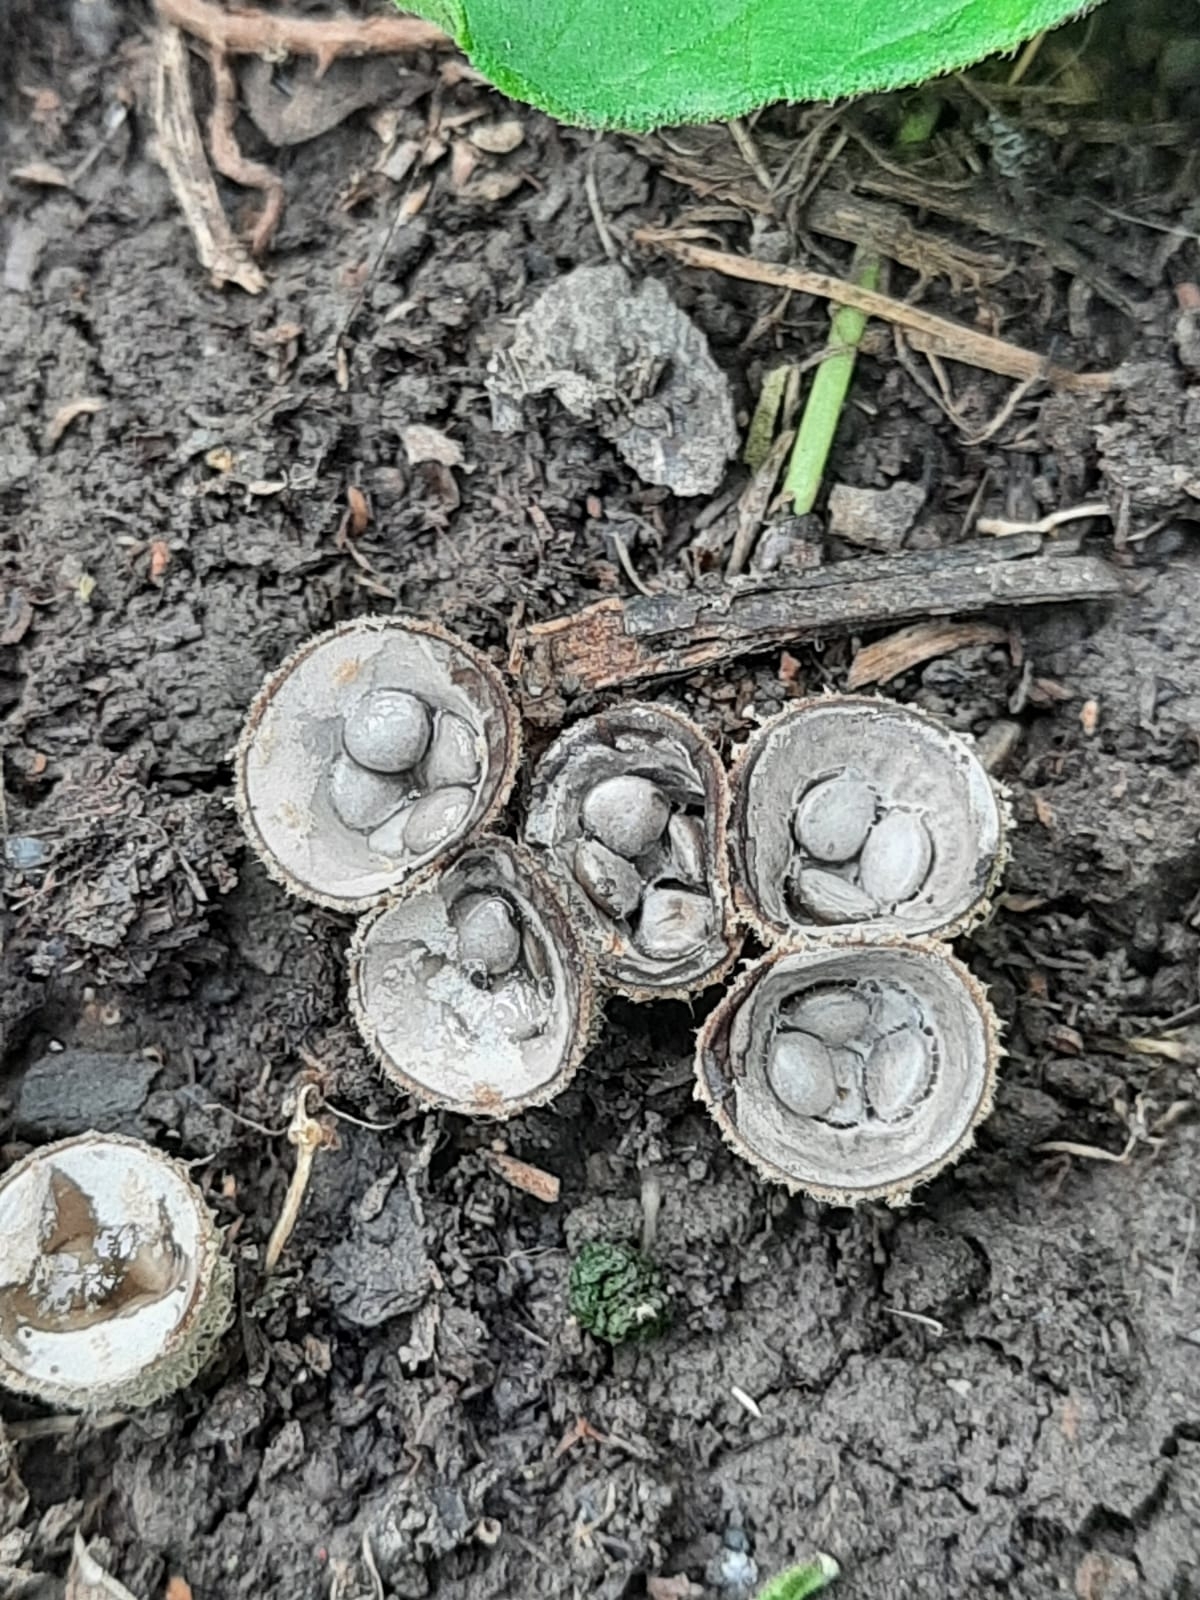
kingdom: Fungi
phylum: Basidiomycota
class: Agaricomycetes
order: Agaricales
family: Nidulariaceae
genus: Crucibulum
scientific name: Crucibulum laeve
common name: Common bird's nest
